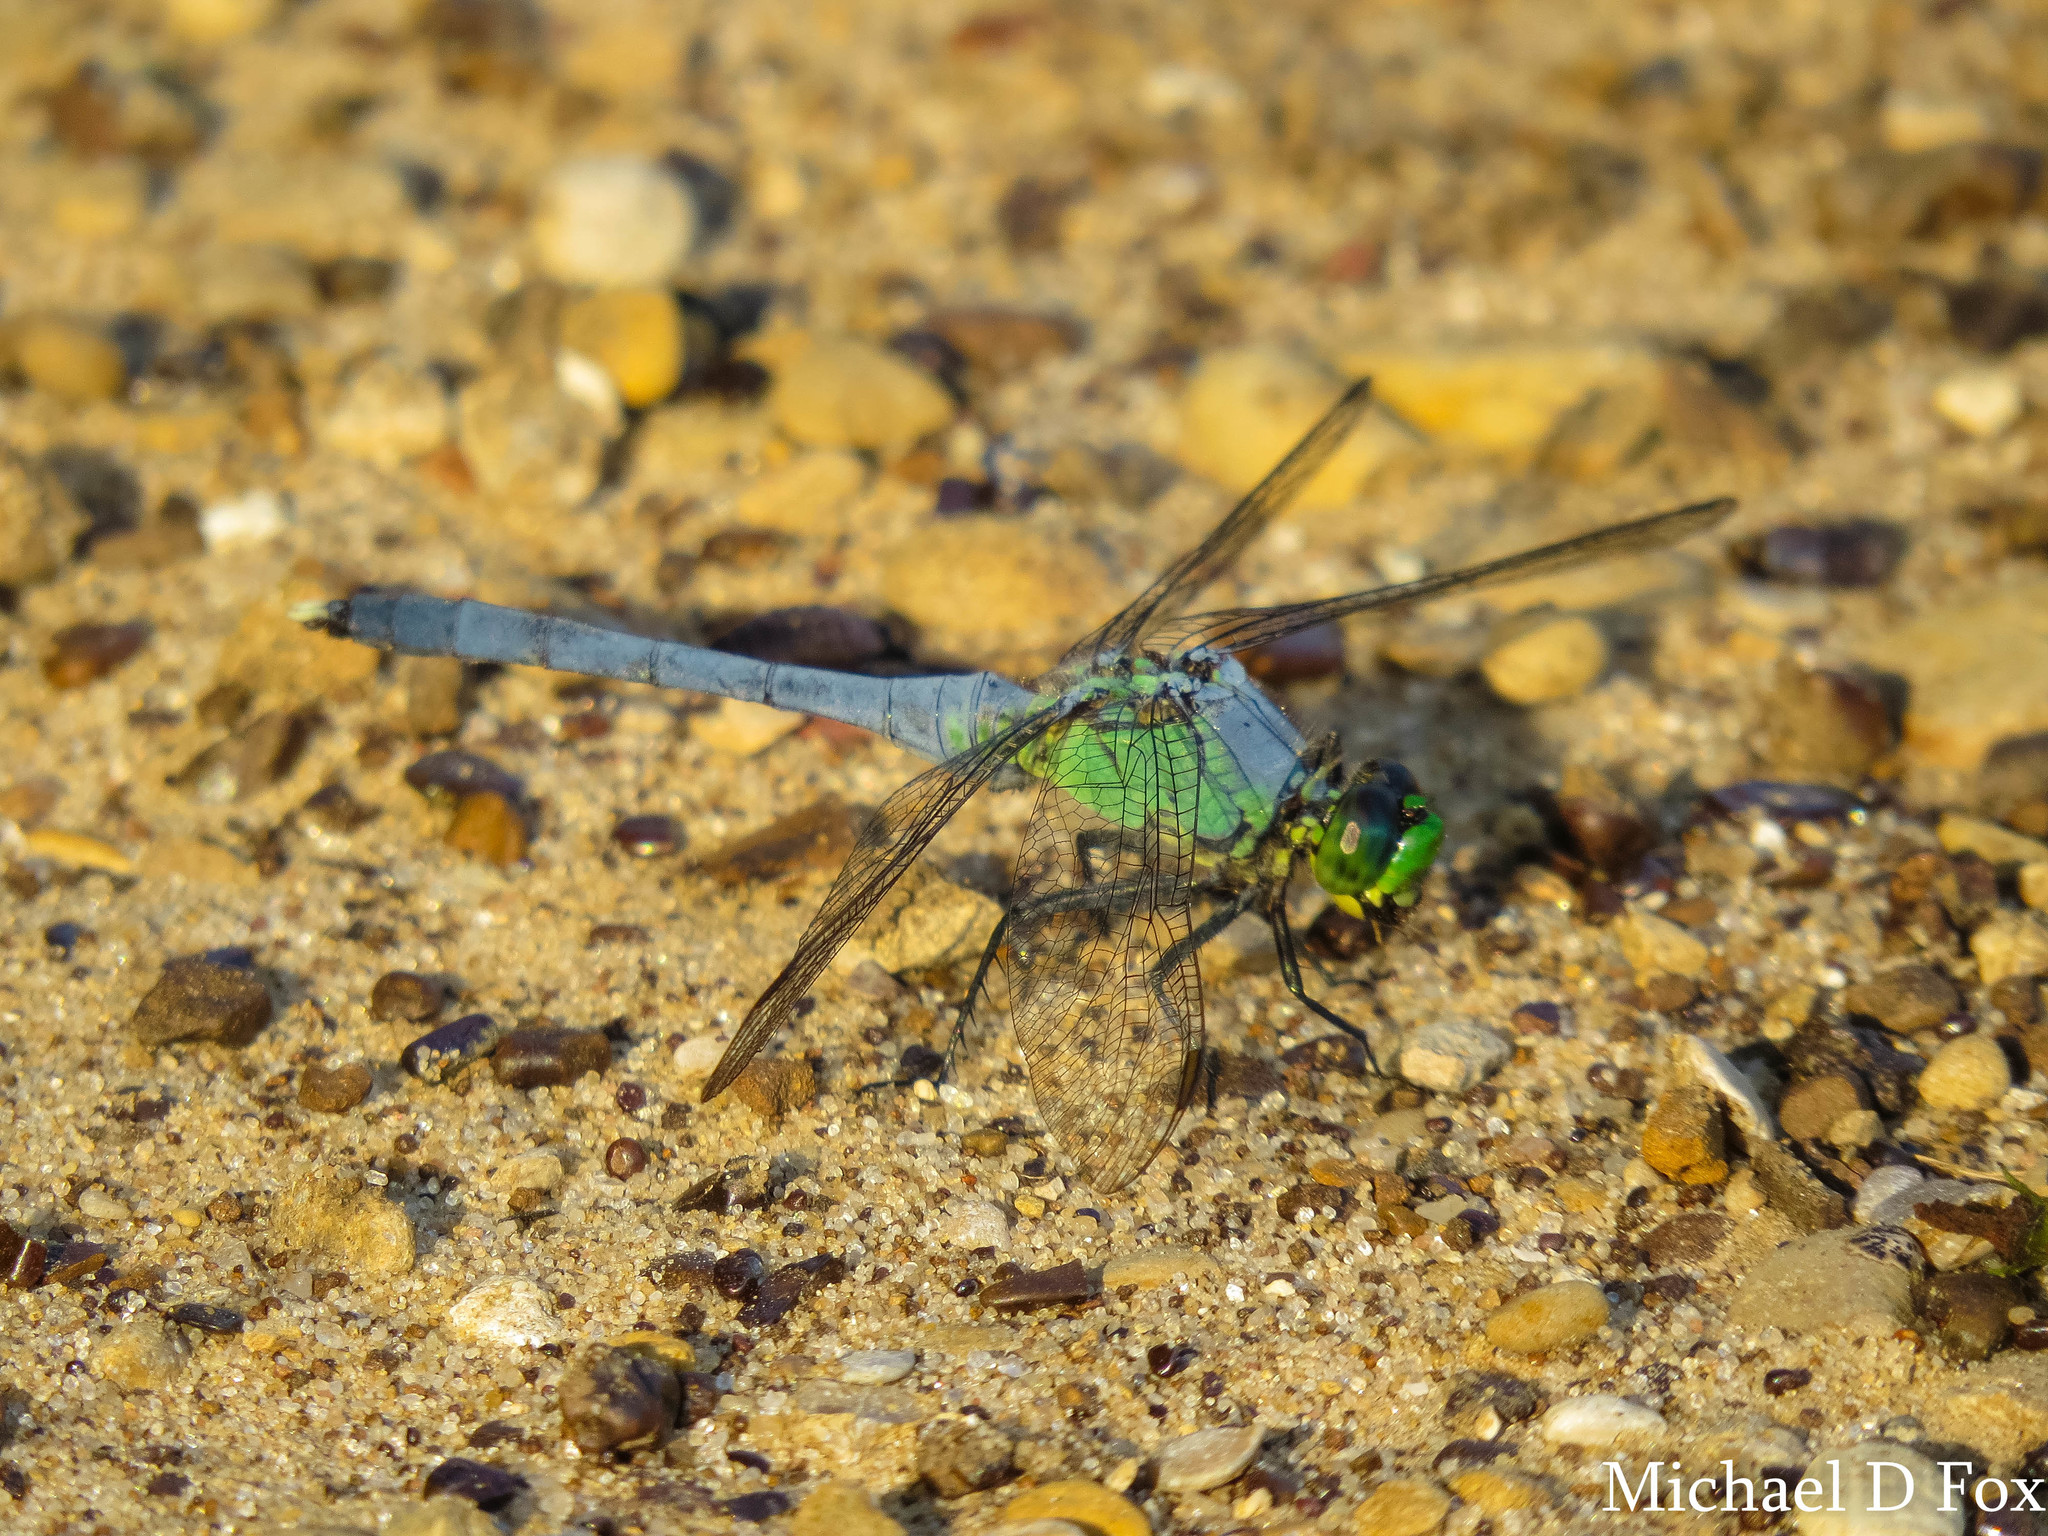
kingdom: Animalia
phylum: Arthropoda
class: Insecta
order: Odonata
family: Libellulidae
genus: Erythemis
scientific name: Erythemis simplicicollis
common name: Eastern pondhawk
